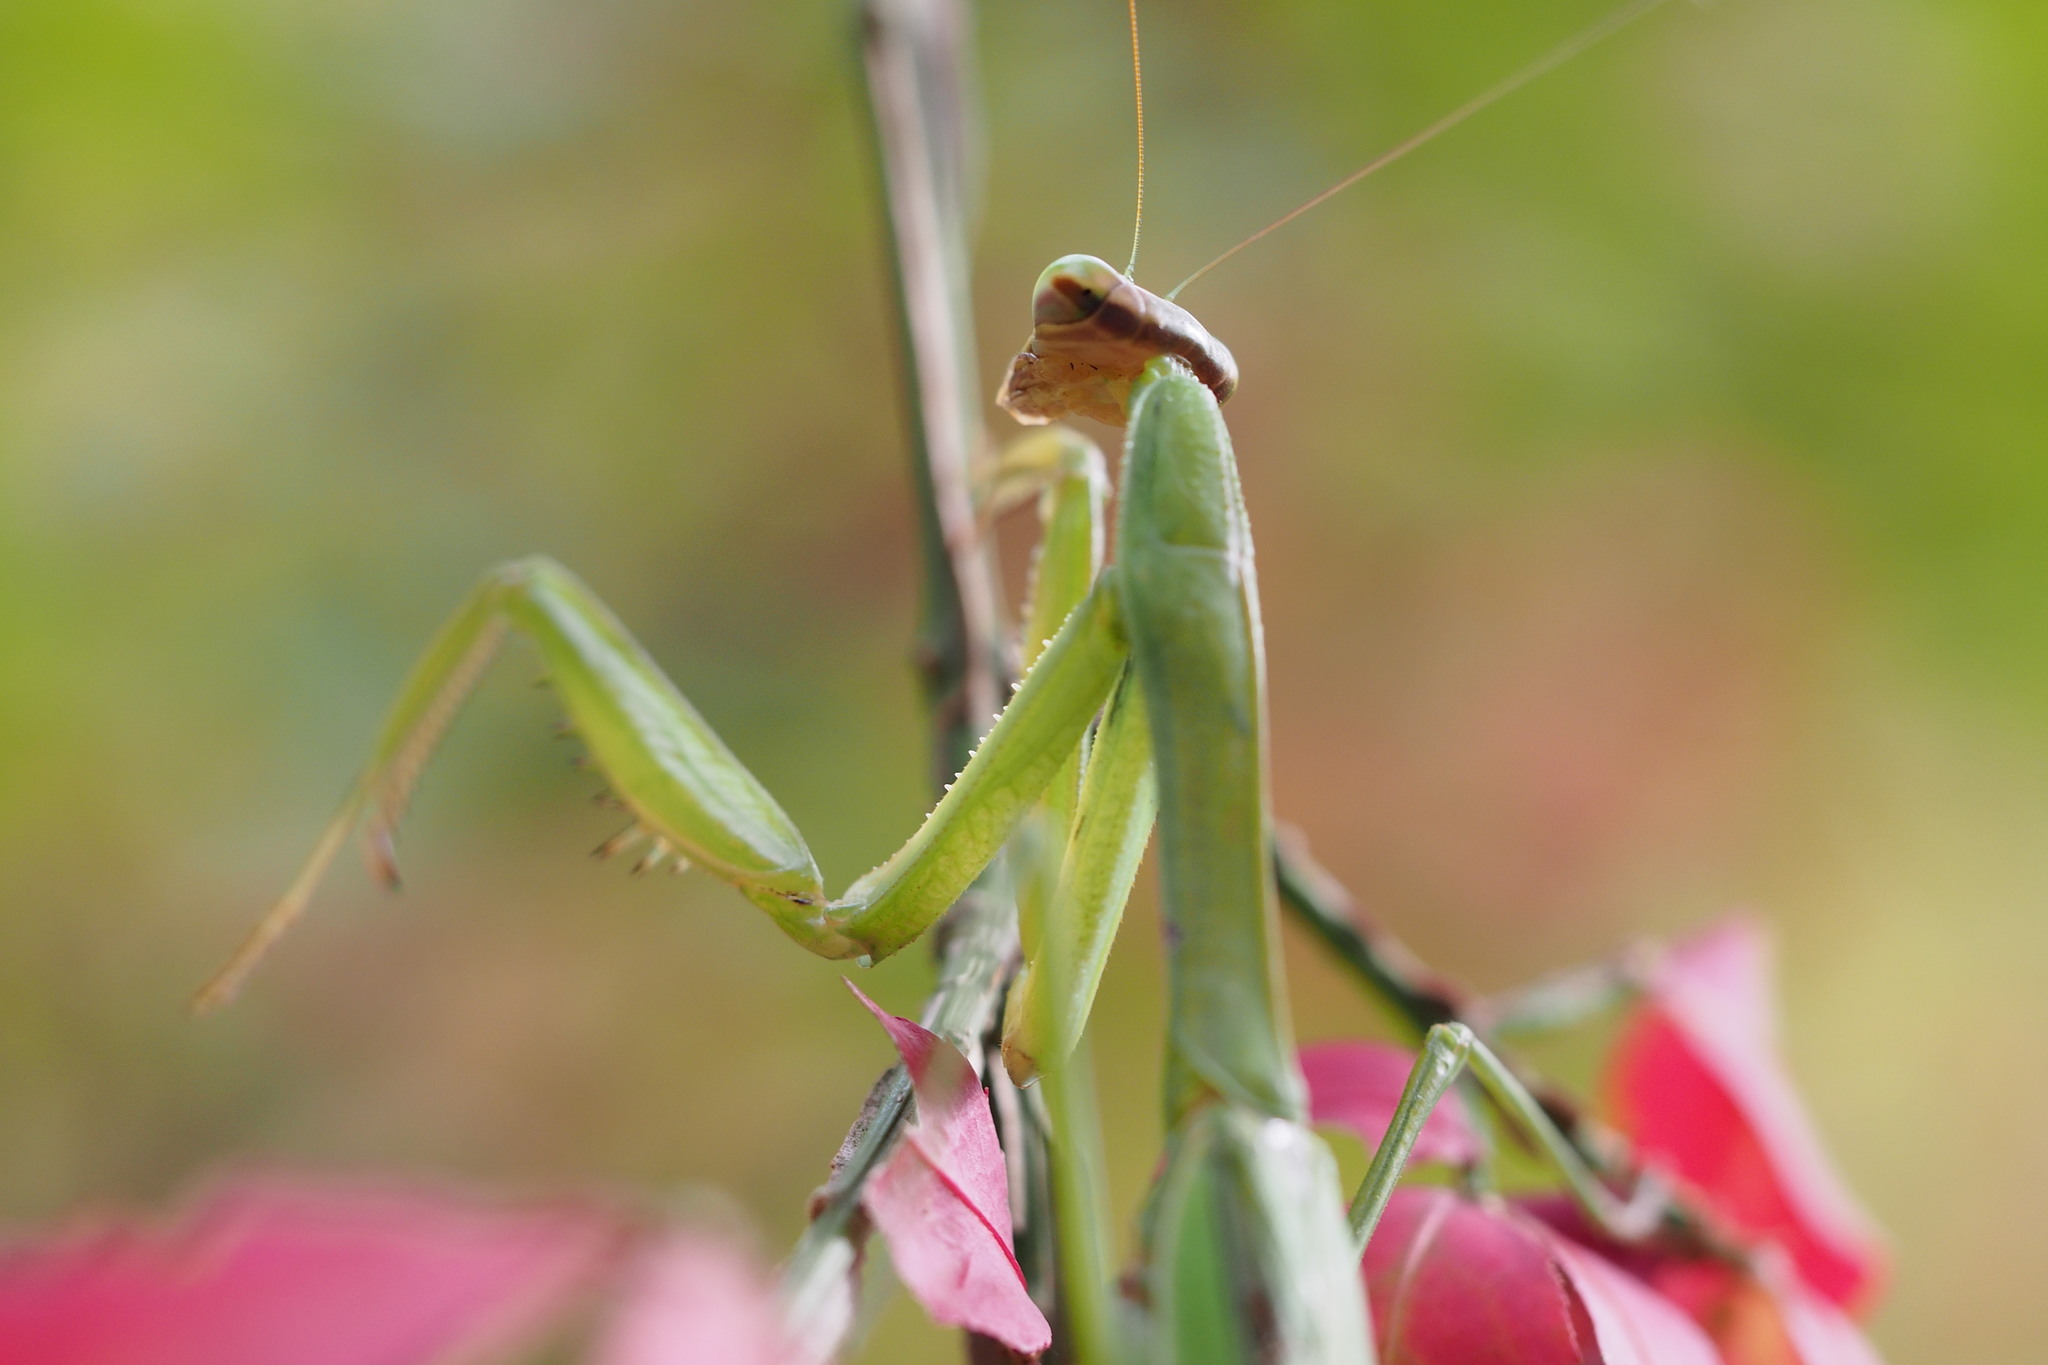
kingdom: Animalia
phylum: Arthropoda
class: Insecta
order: Mantodea
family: Mantidae
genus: Tenodera
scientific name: Tenodera sinensis
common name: Chinese mantis
